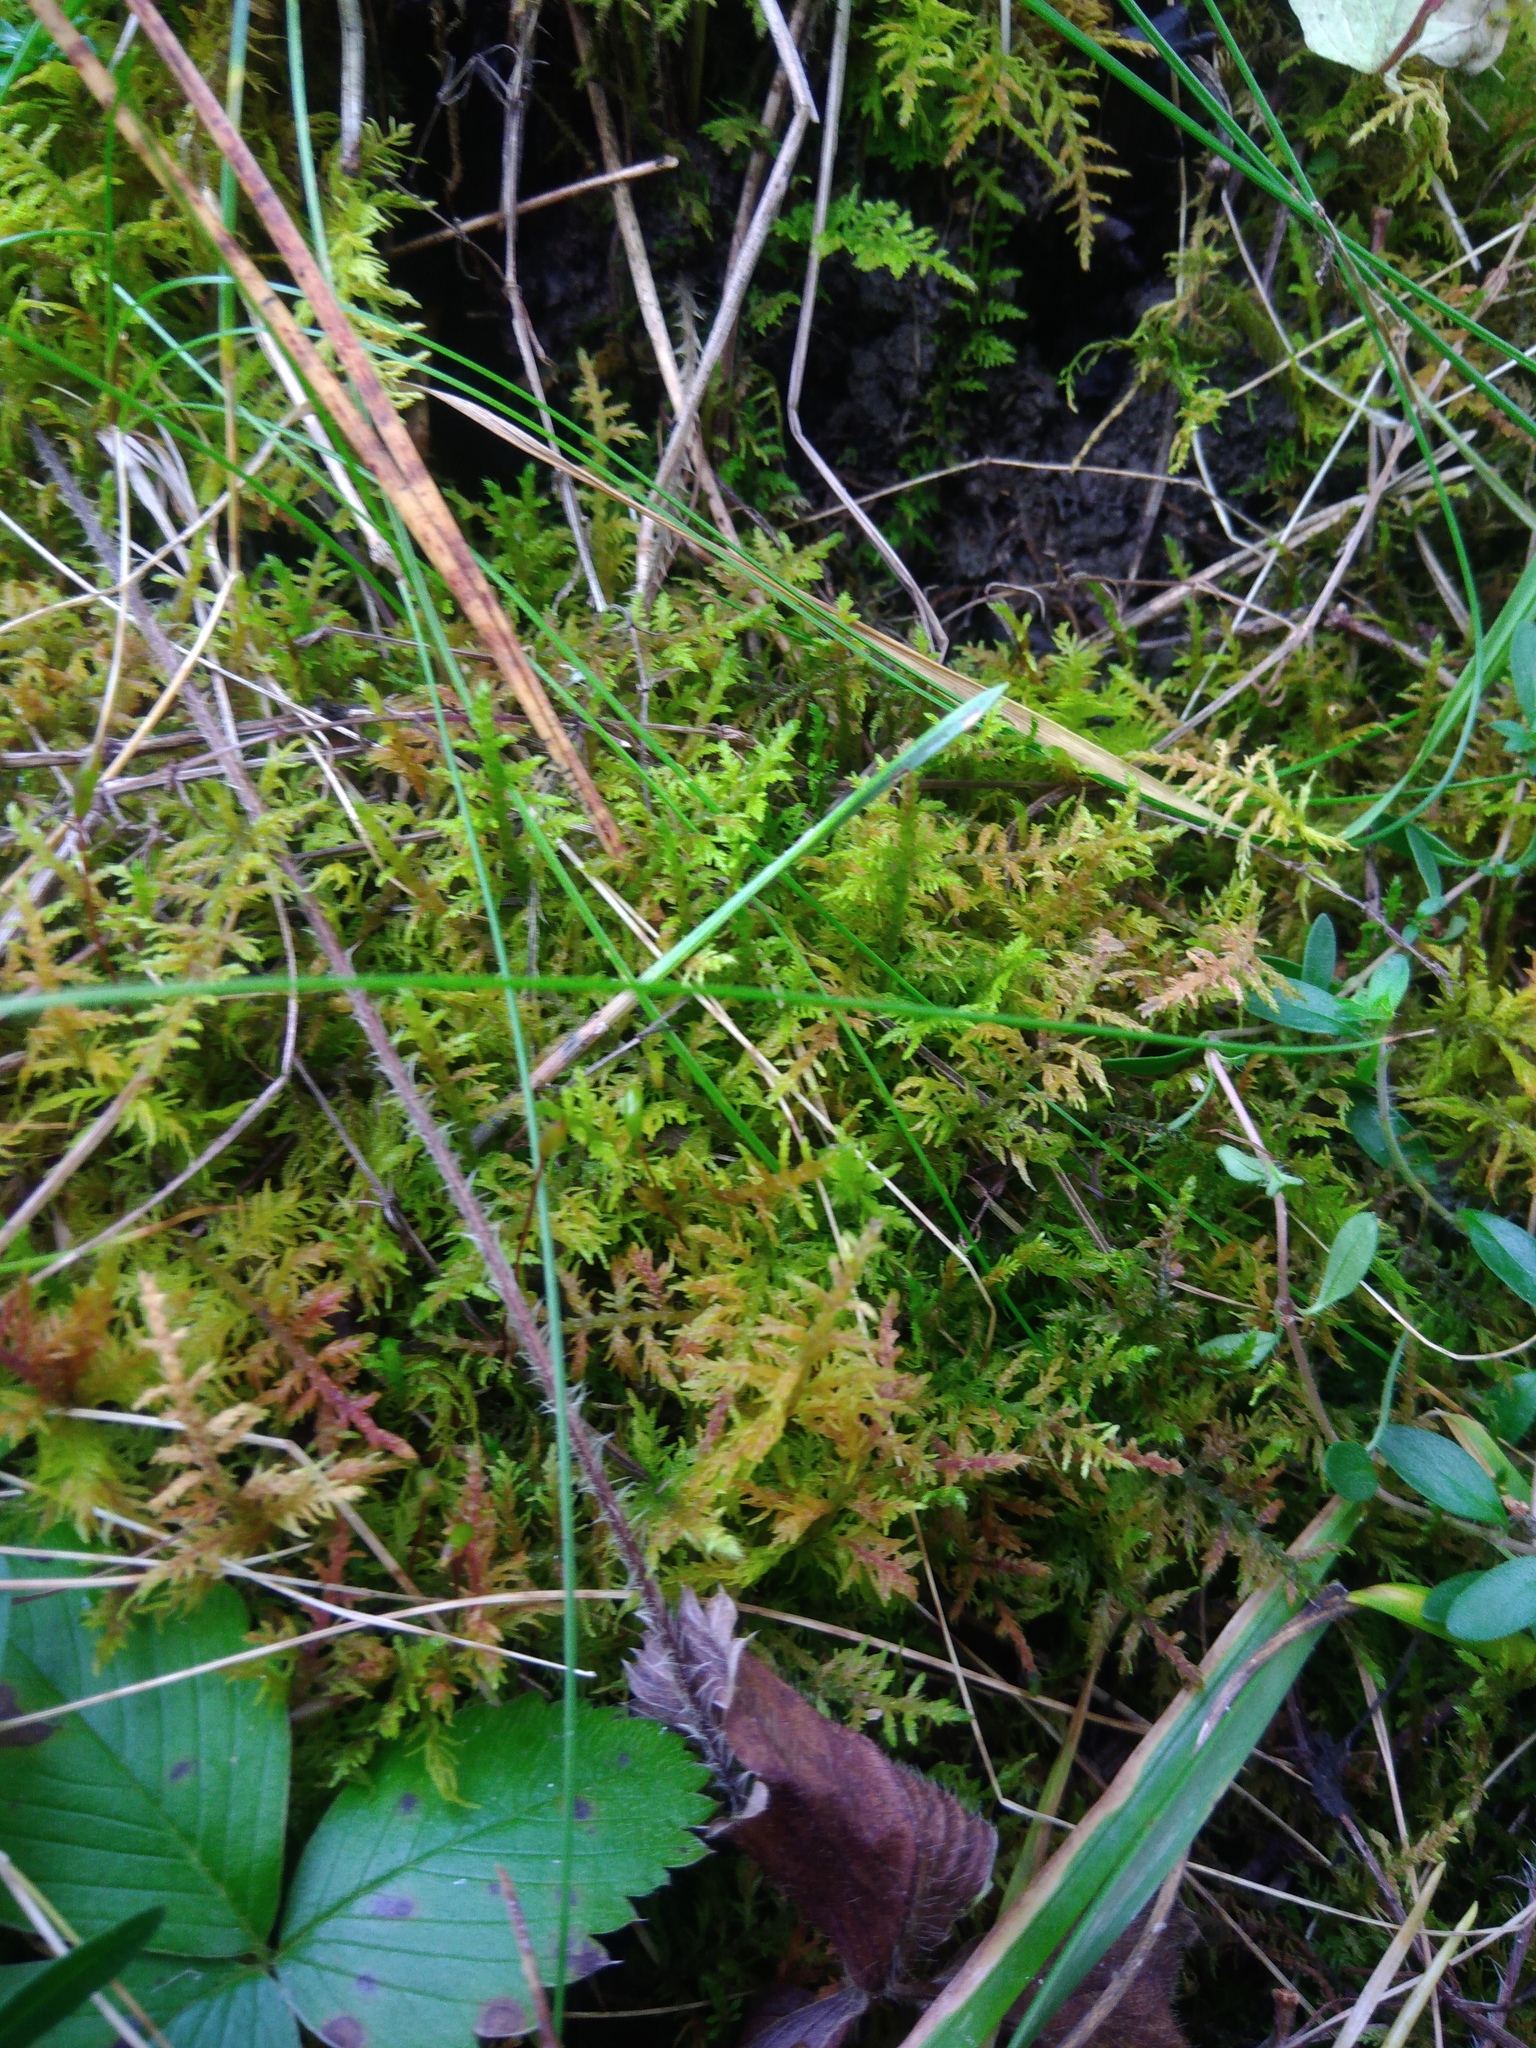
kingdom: Plantae
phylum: Bryophyta
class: Bryopsida
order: Hypnales
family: Thuidiaceae
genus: Thuidium
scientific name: Thuidium assimile
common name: Philibert's fern moss
